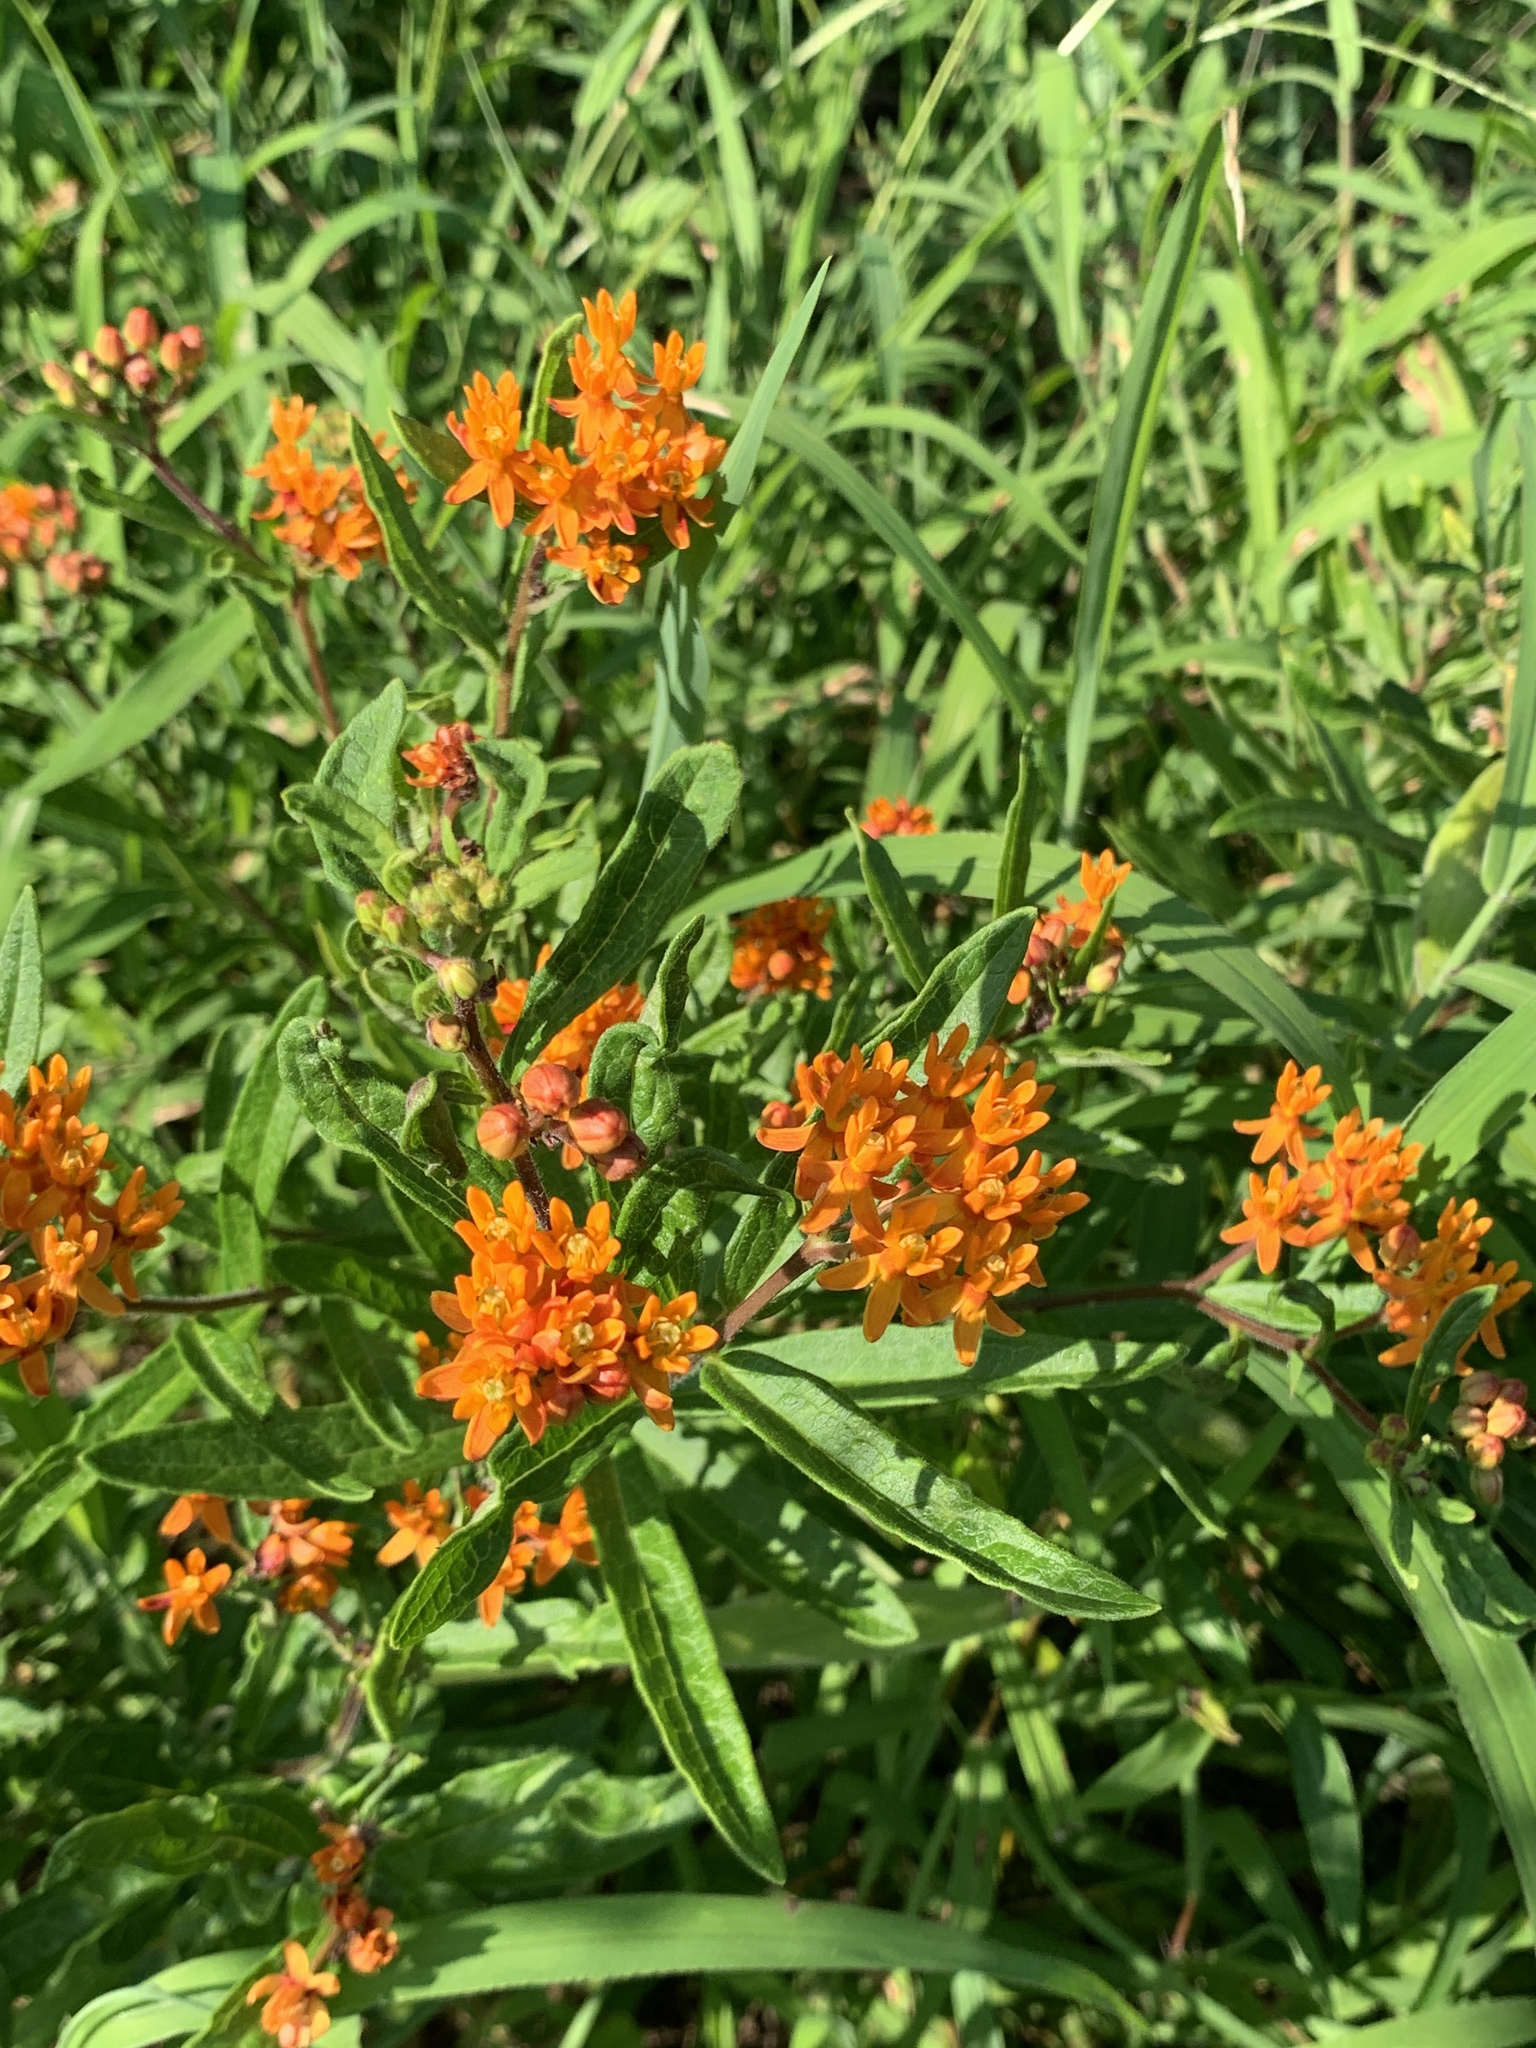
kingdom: Plantae
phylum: Tracheophyta
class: Magnoliopsida
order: Gentianales
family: Apocynaceae
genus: Asclepias
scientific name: Asclepias tuberosa
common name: Butterfly milkweed
